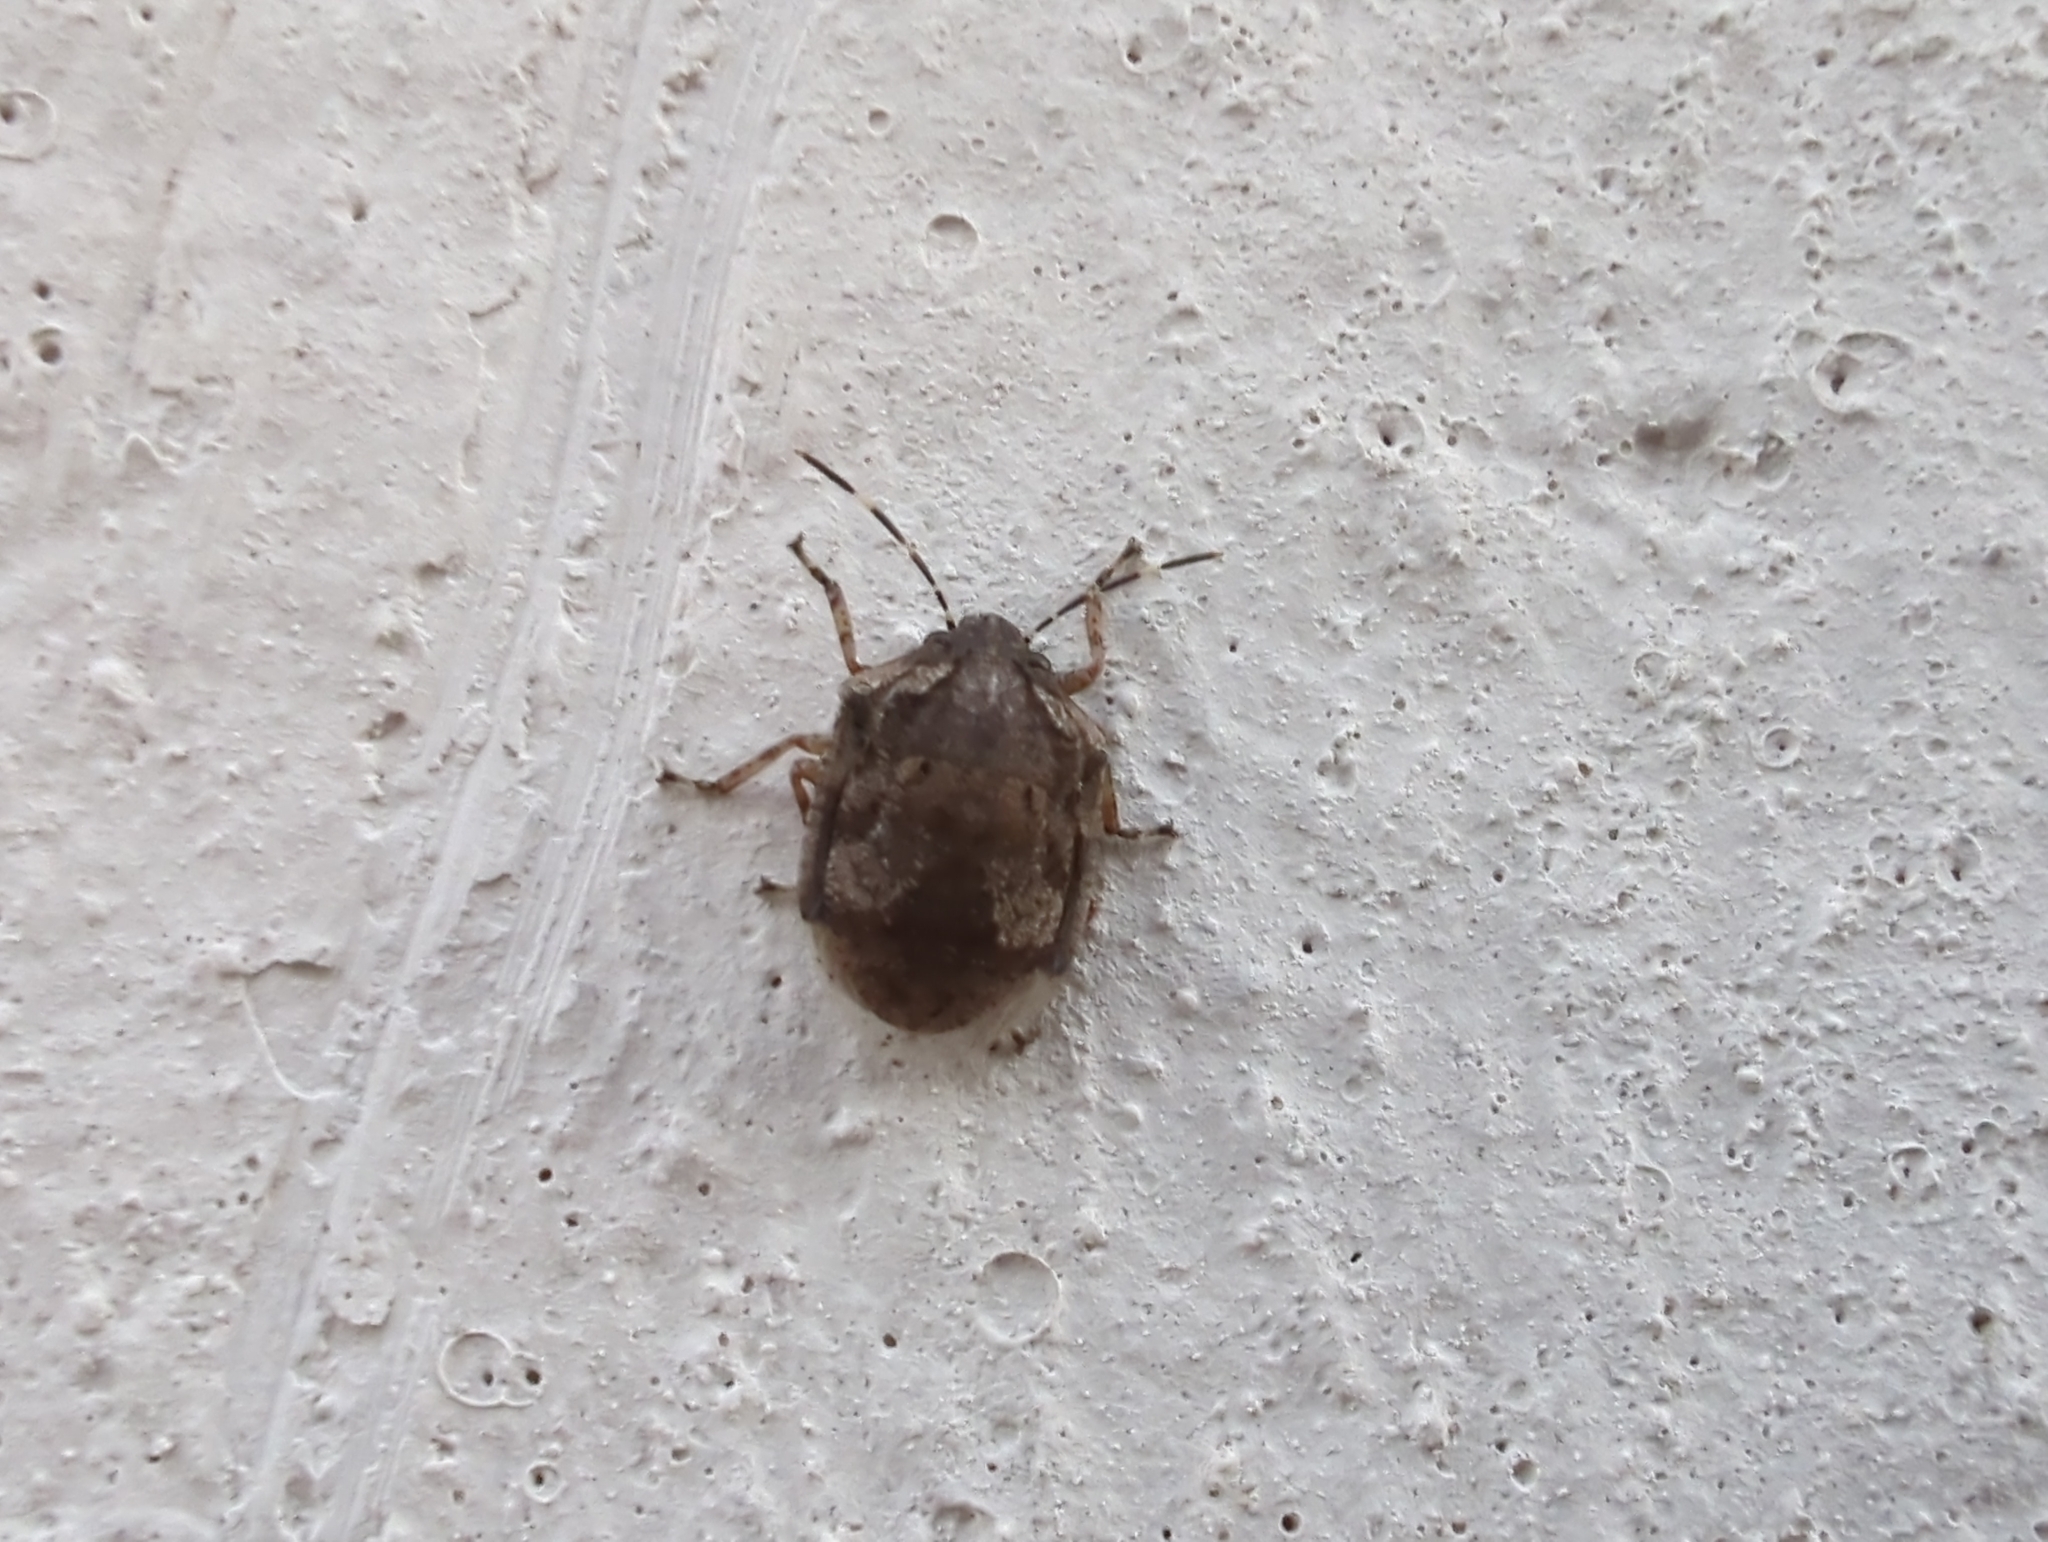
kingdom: Animalia
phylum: Arthropoda
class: Insecta
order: Hemiptera
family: Scutelleridae
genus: Tetyra
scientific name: Tetyra antillarum
